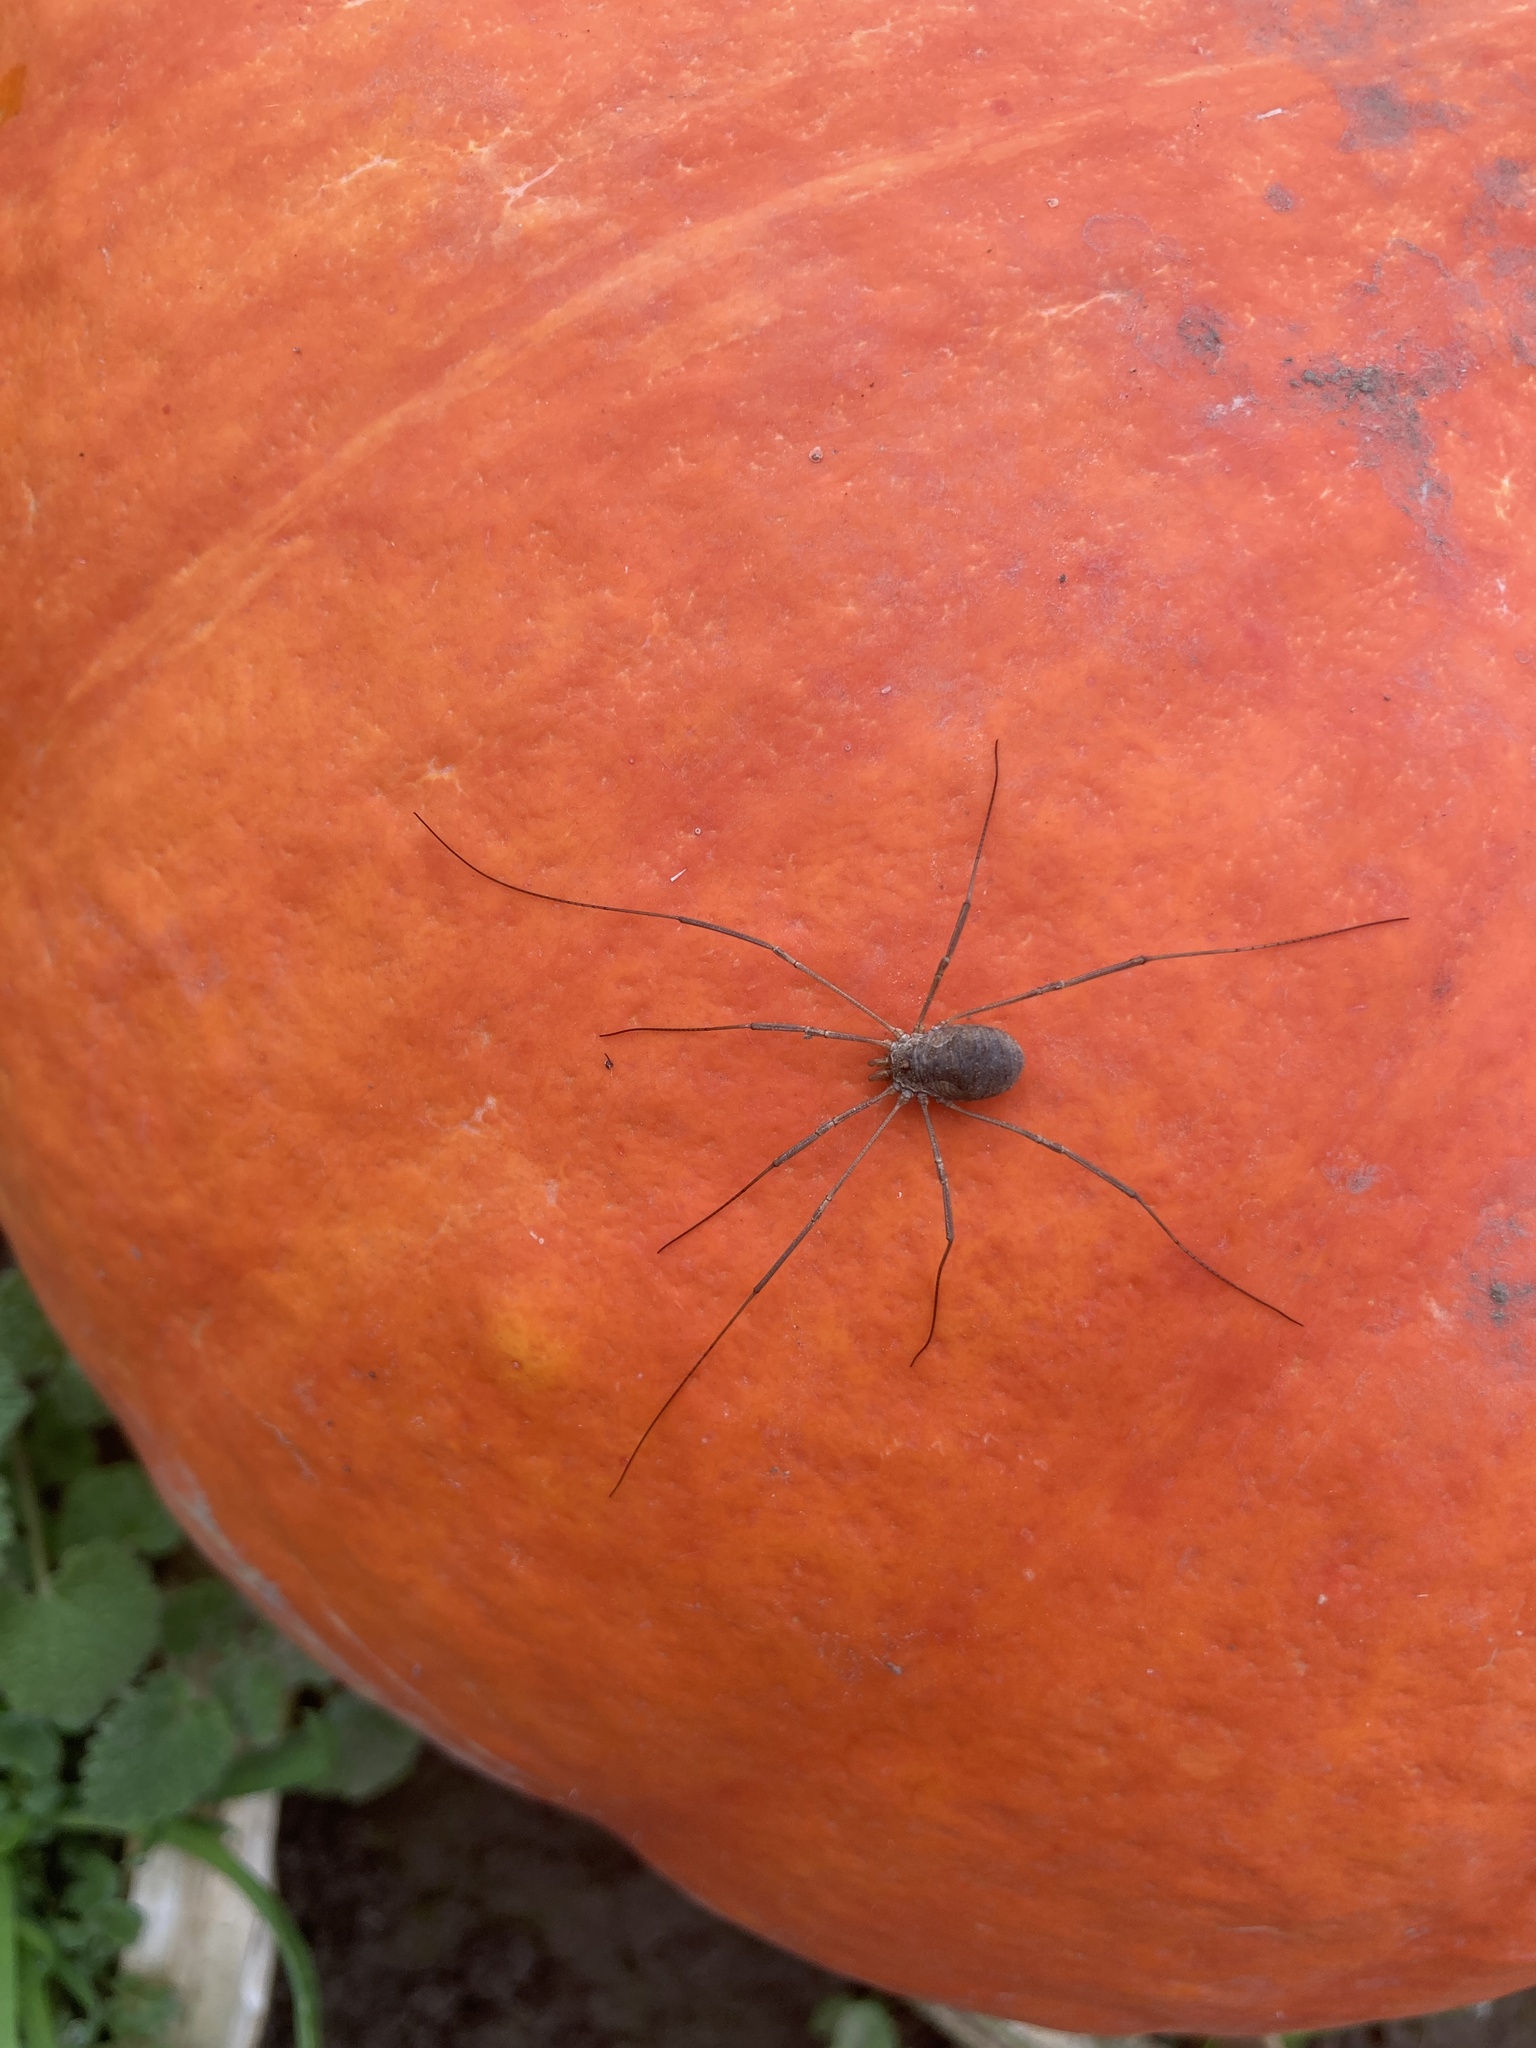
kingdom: Animalia
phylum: Arthropoda
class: Arachnida
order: Opiliones
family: Phalangiidae
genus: Phalangium
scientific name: Phalangium opilio
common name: Daddy longleg
